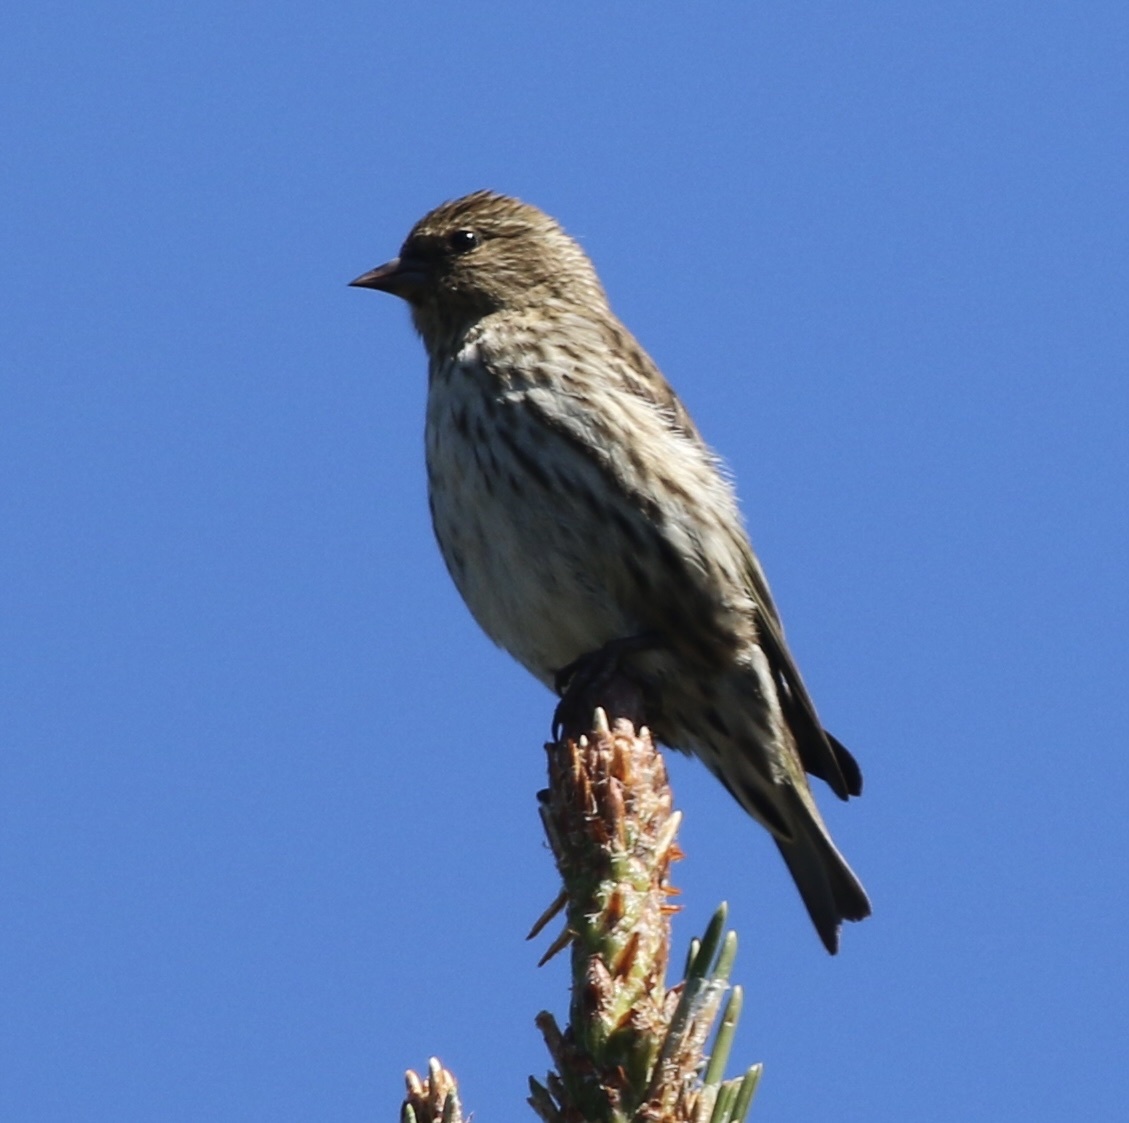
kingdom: Animalia
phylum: Chordata
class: Aves
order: Passeriformes
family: Fringillidae
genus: Spinus
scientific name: Spinus pinus
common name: Pine siskin
